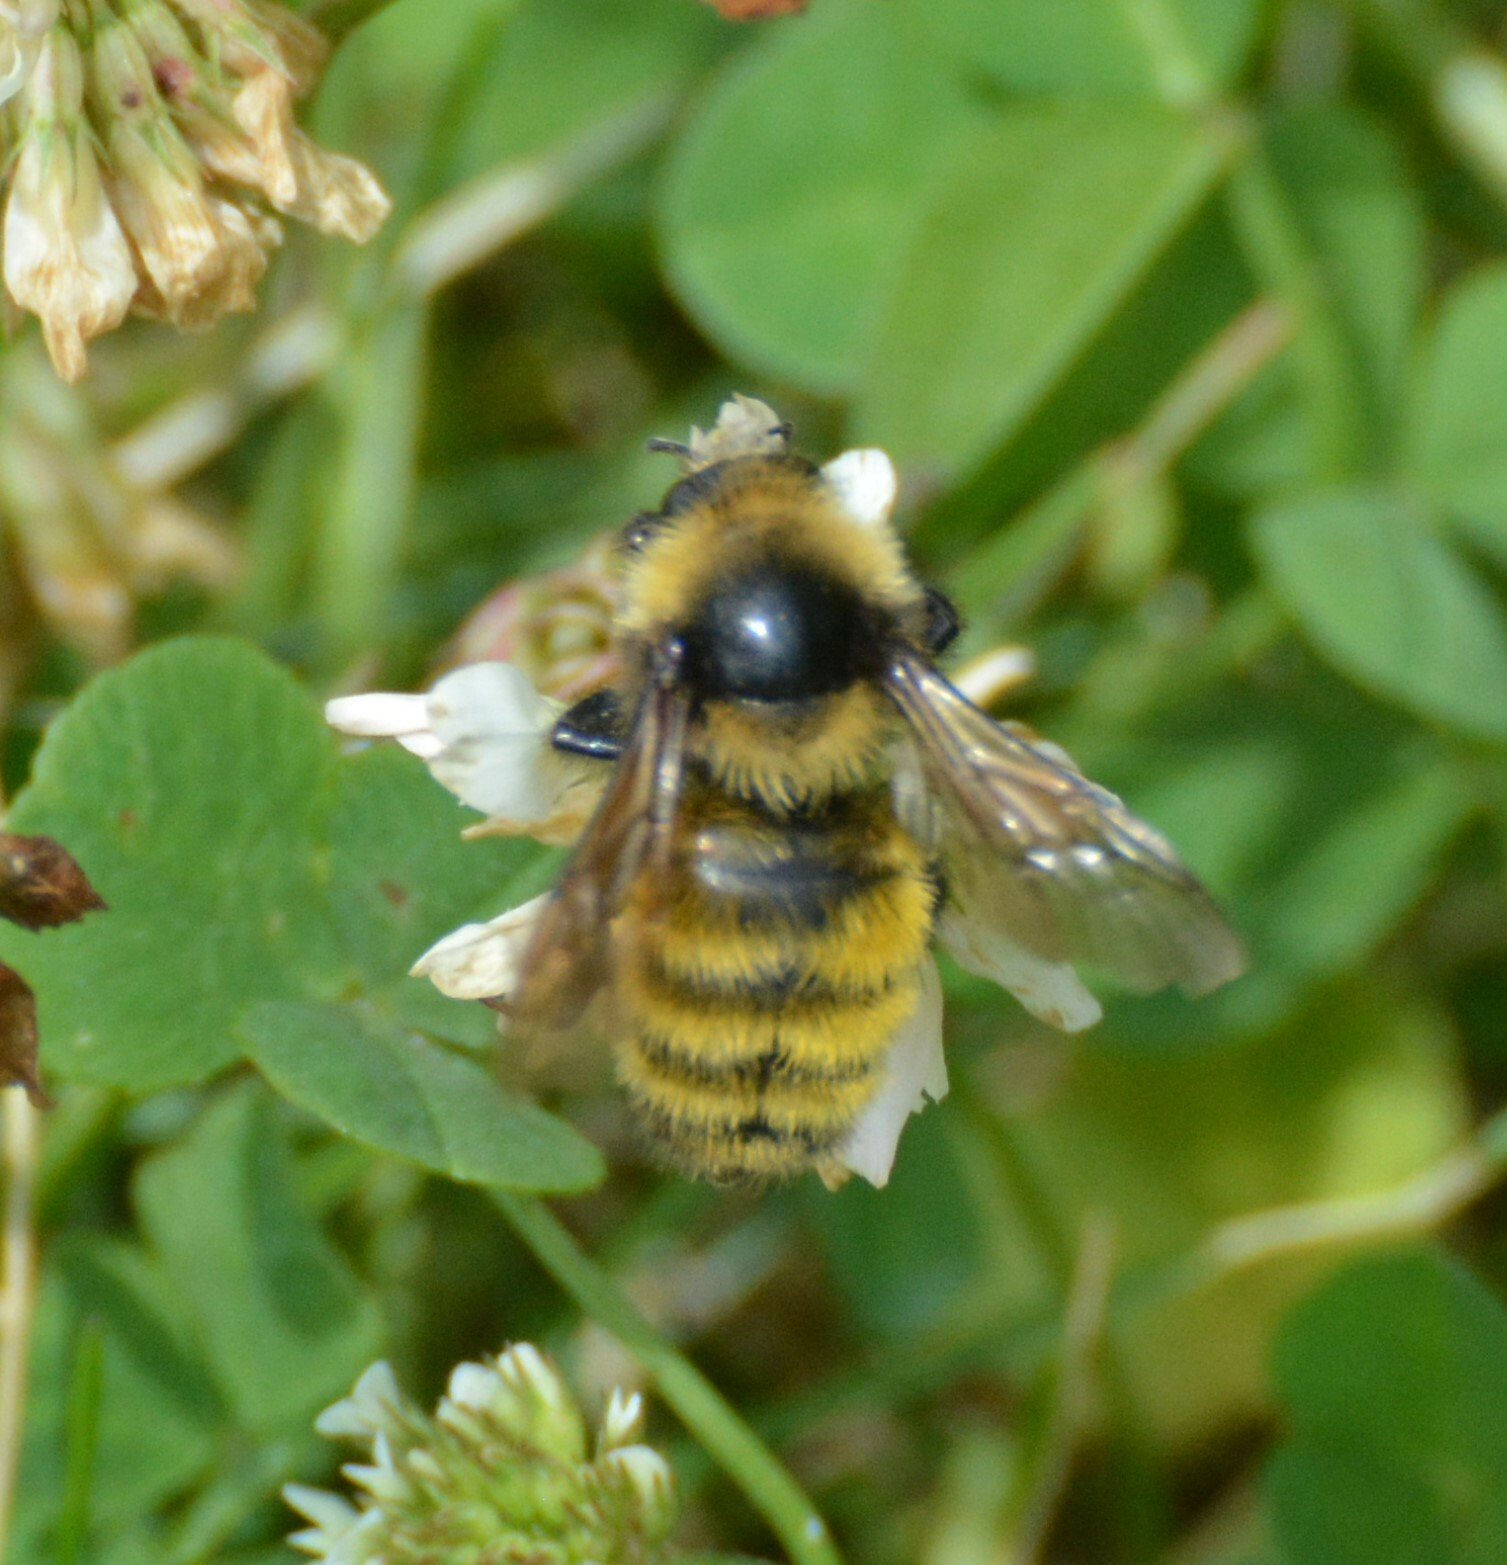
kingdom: Animalia
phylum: Arthropoda
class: Insecta
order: Hymenoptera
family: Apidae
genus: Bombus
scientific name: Bombus borealis
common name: Northern amber bumble bee
